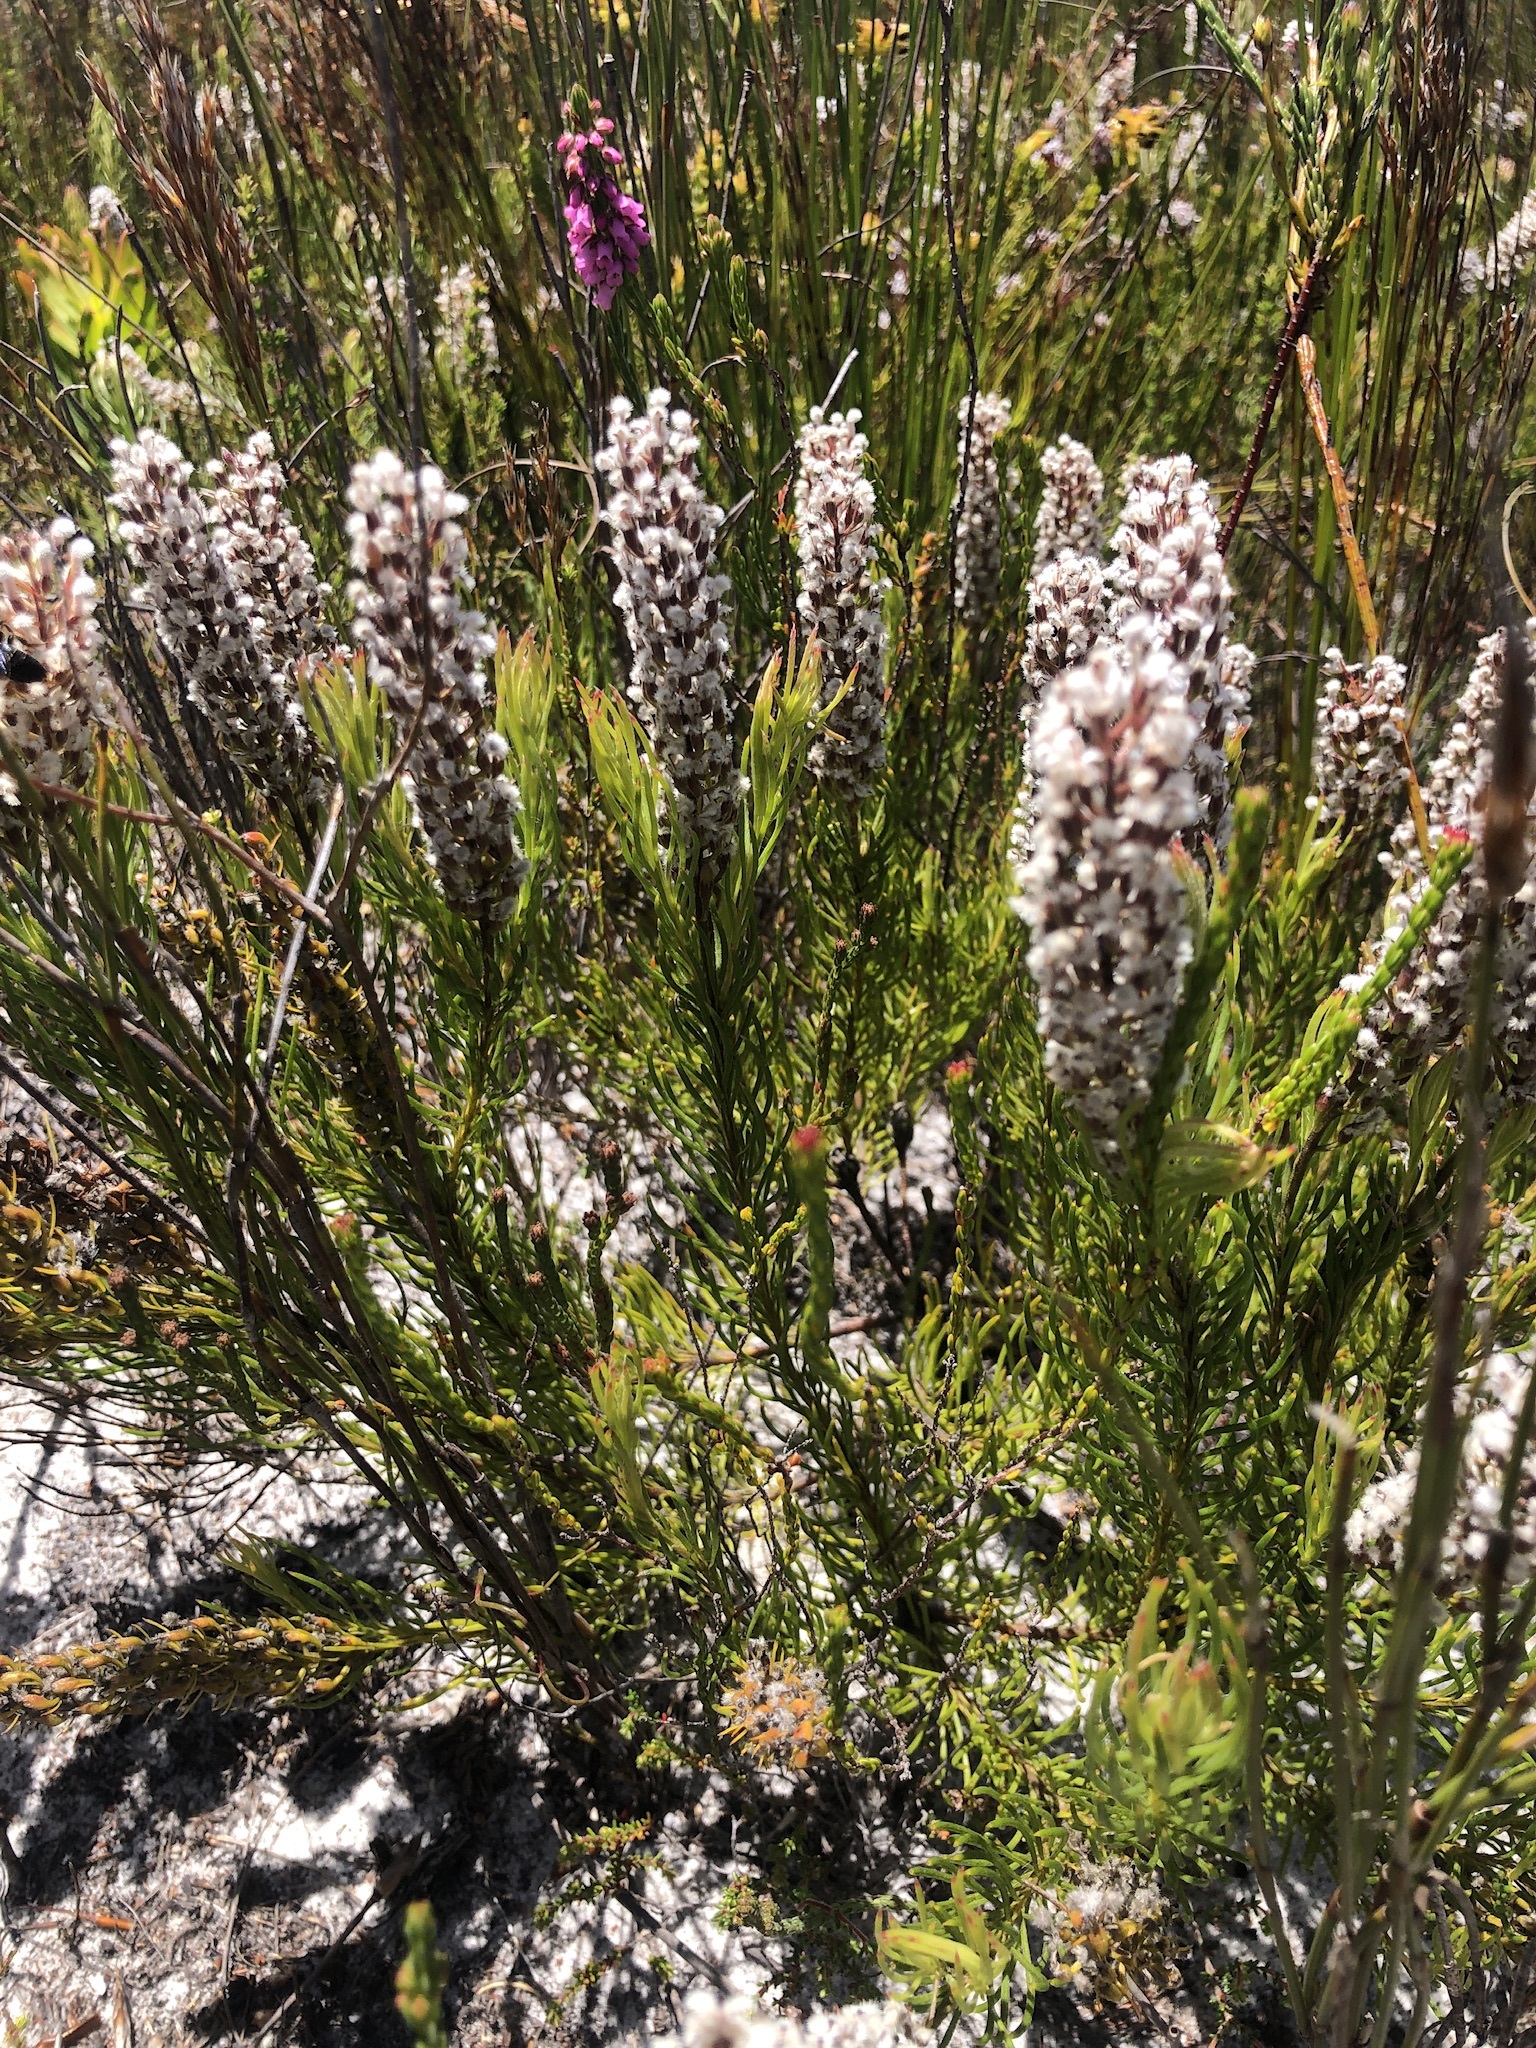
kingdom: Plantae
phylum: Tracheophyta
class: Magnoliopsida
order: Proteales
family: Proteaceae
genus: Spatalla
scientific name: Spatalla curvifolia
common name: White-stalked spoon
